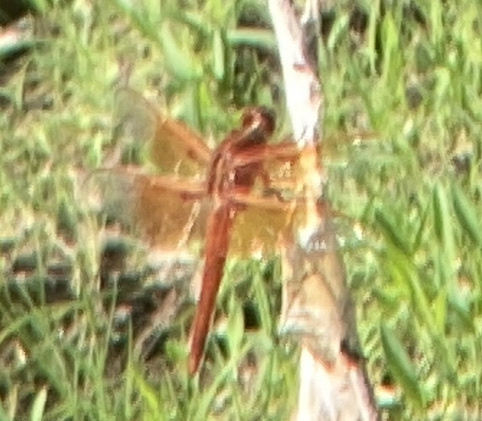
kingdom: Animalia
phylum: Arthropoda
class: Insecta
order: Odonata
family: Libellulidae
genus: Libellula
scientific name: Libellula saturata
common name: Flame skimmer
